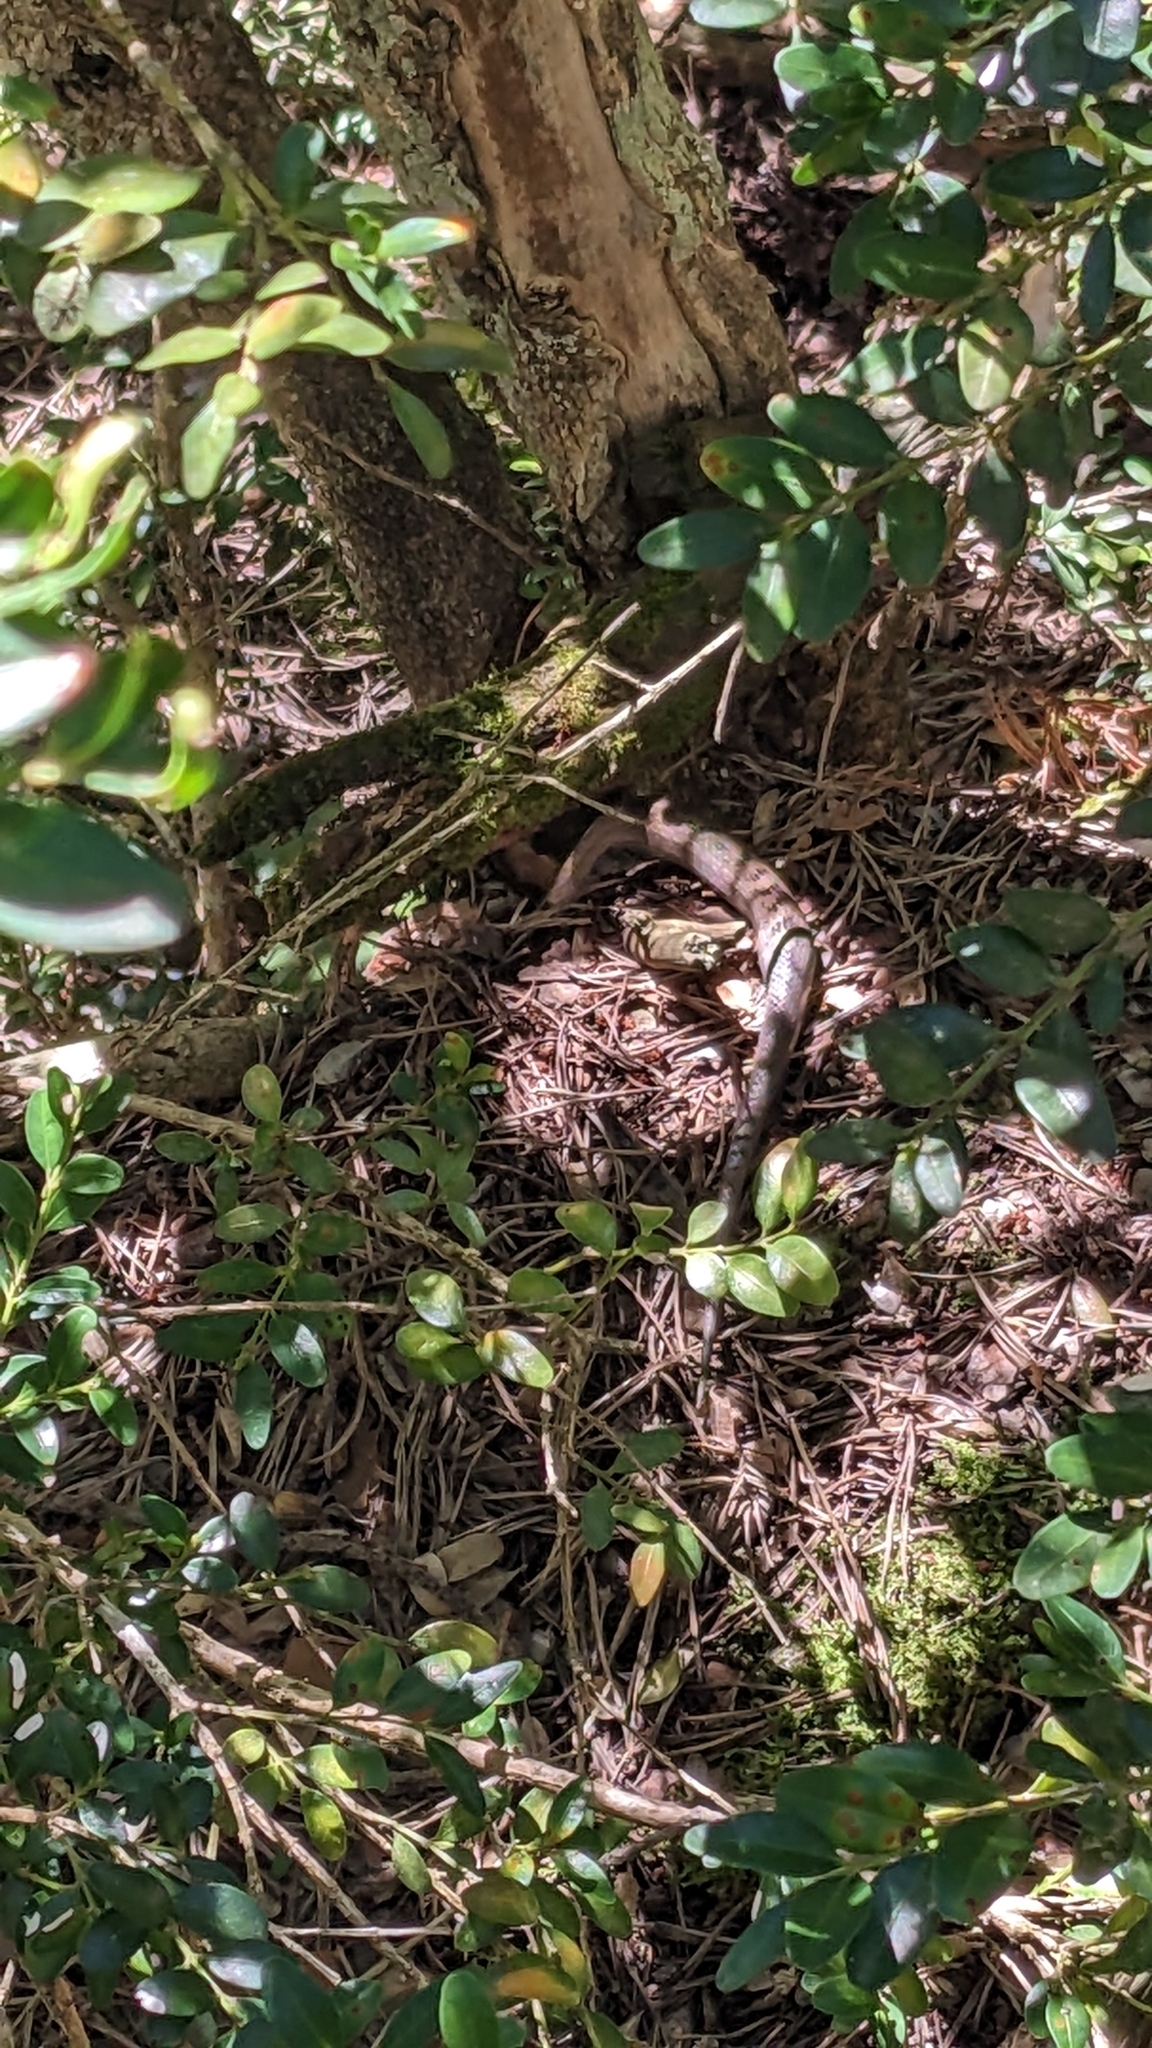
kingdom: Animalia
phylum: Chordata
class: Squamata
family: Colubridae
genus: Coronella
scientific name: Coronella girondica
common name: Southern smooth snake
